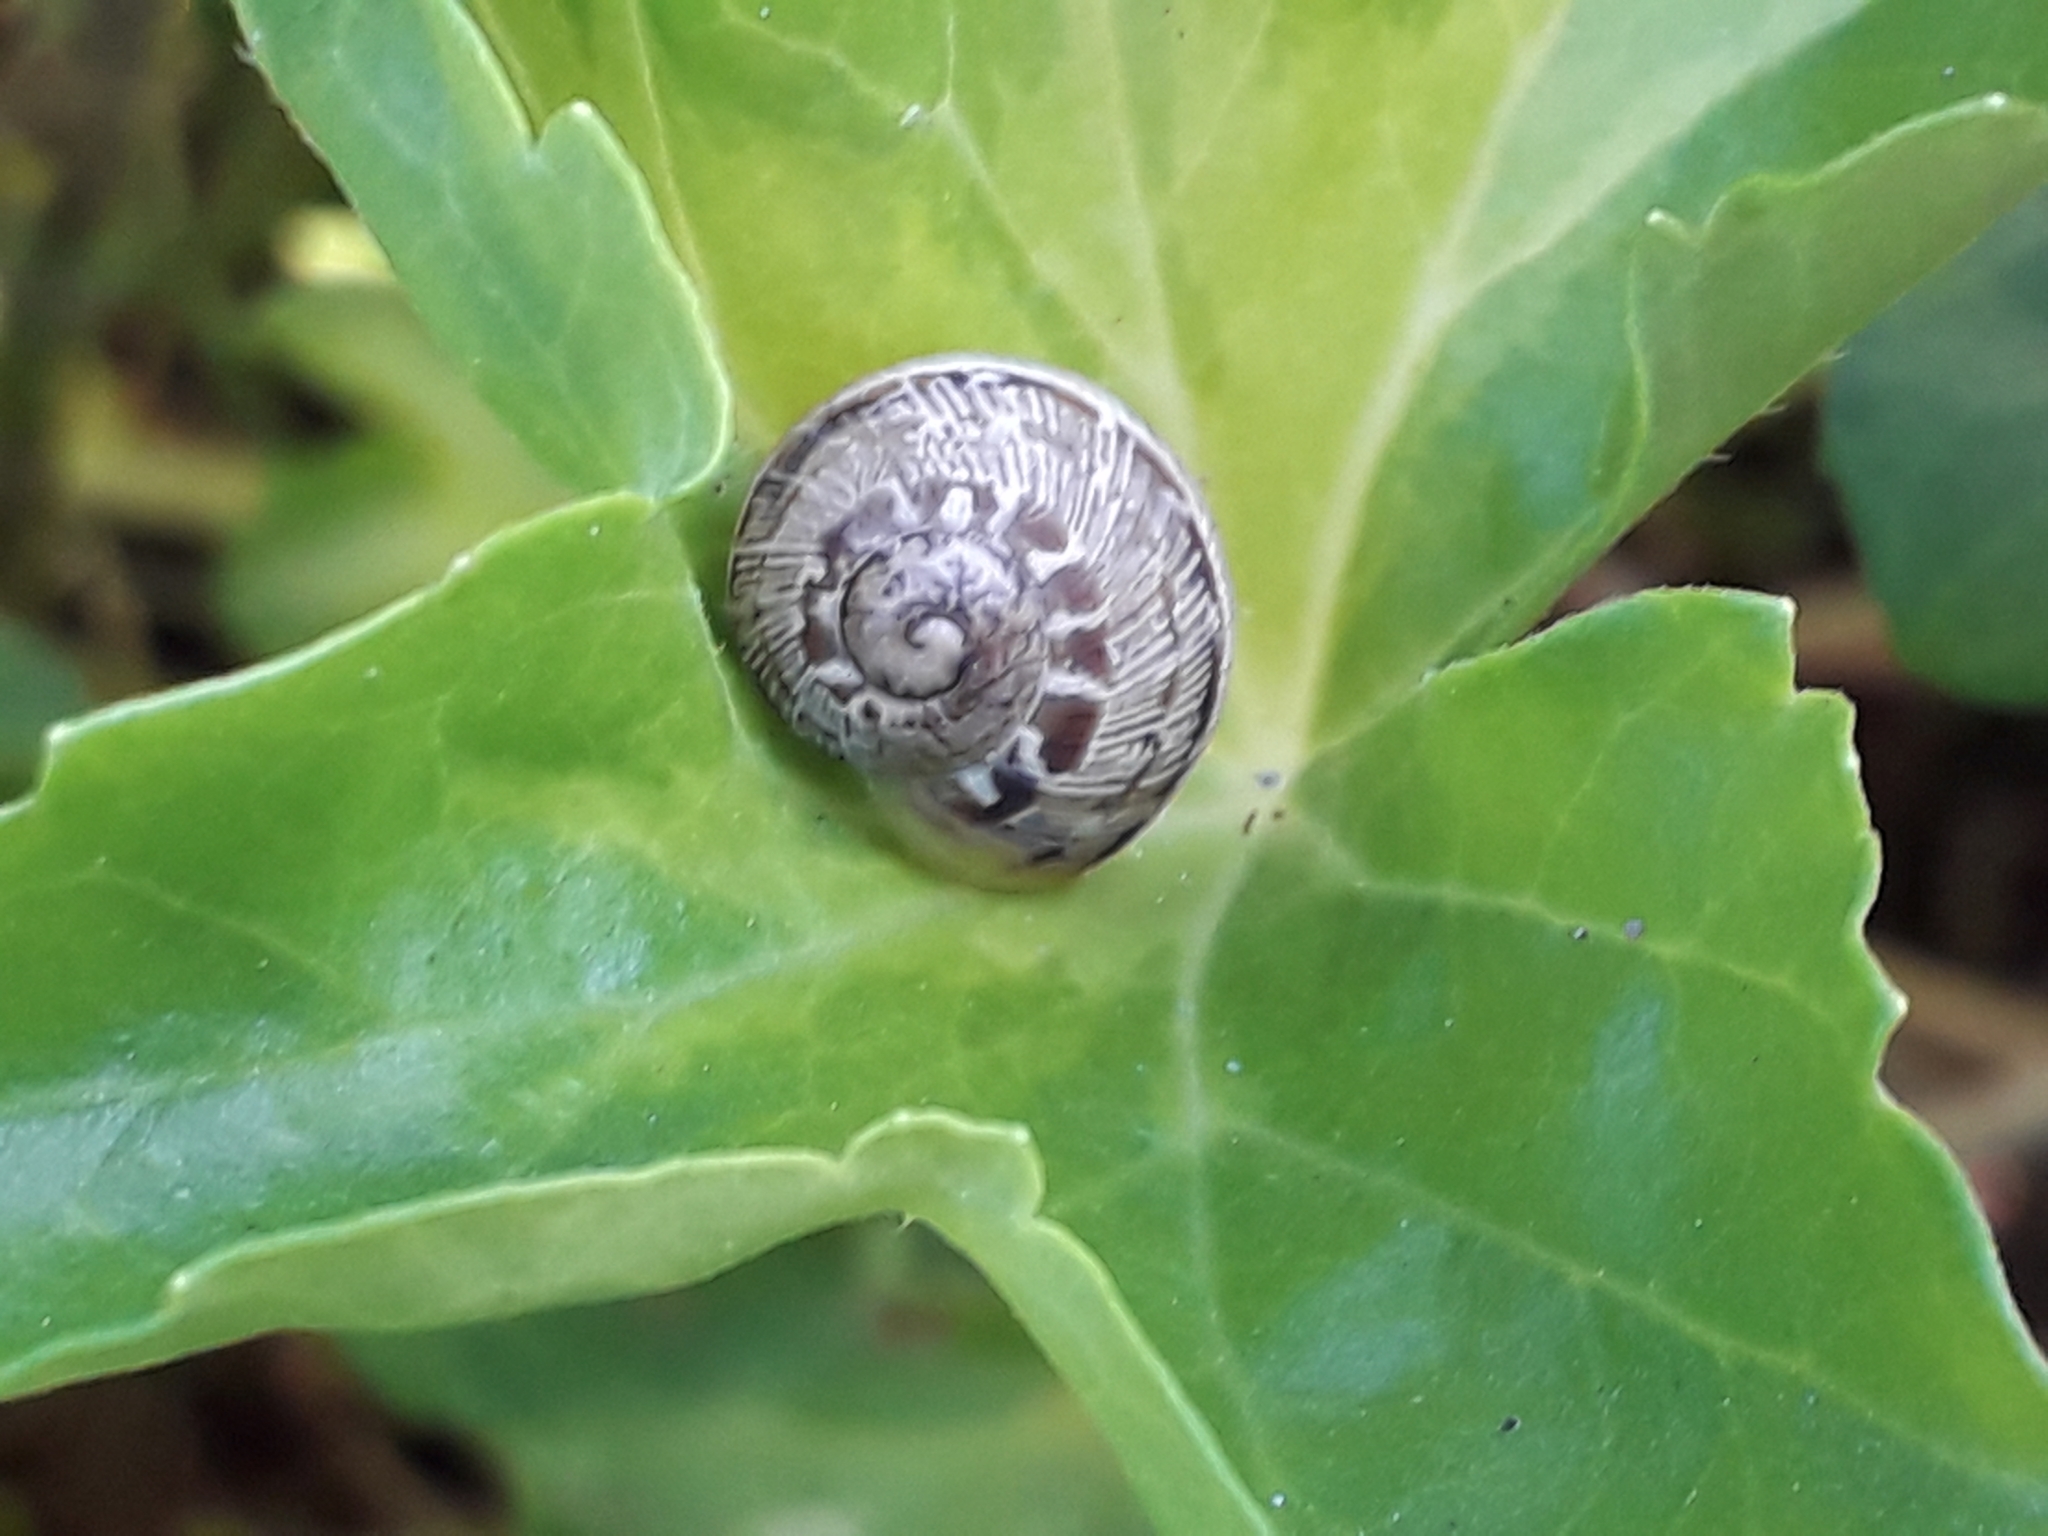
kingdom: Animalia
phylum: Mollusca
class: Gastropoda
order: Stylommatophora
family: Helicidae
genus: Cornu
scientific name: Cornu aspersum
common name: Brown garden snail
